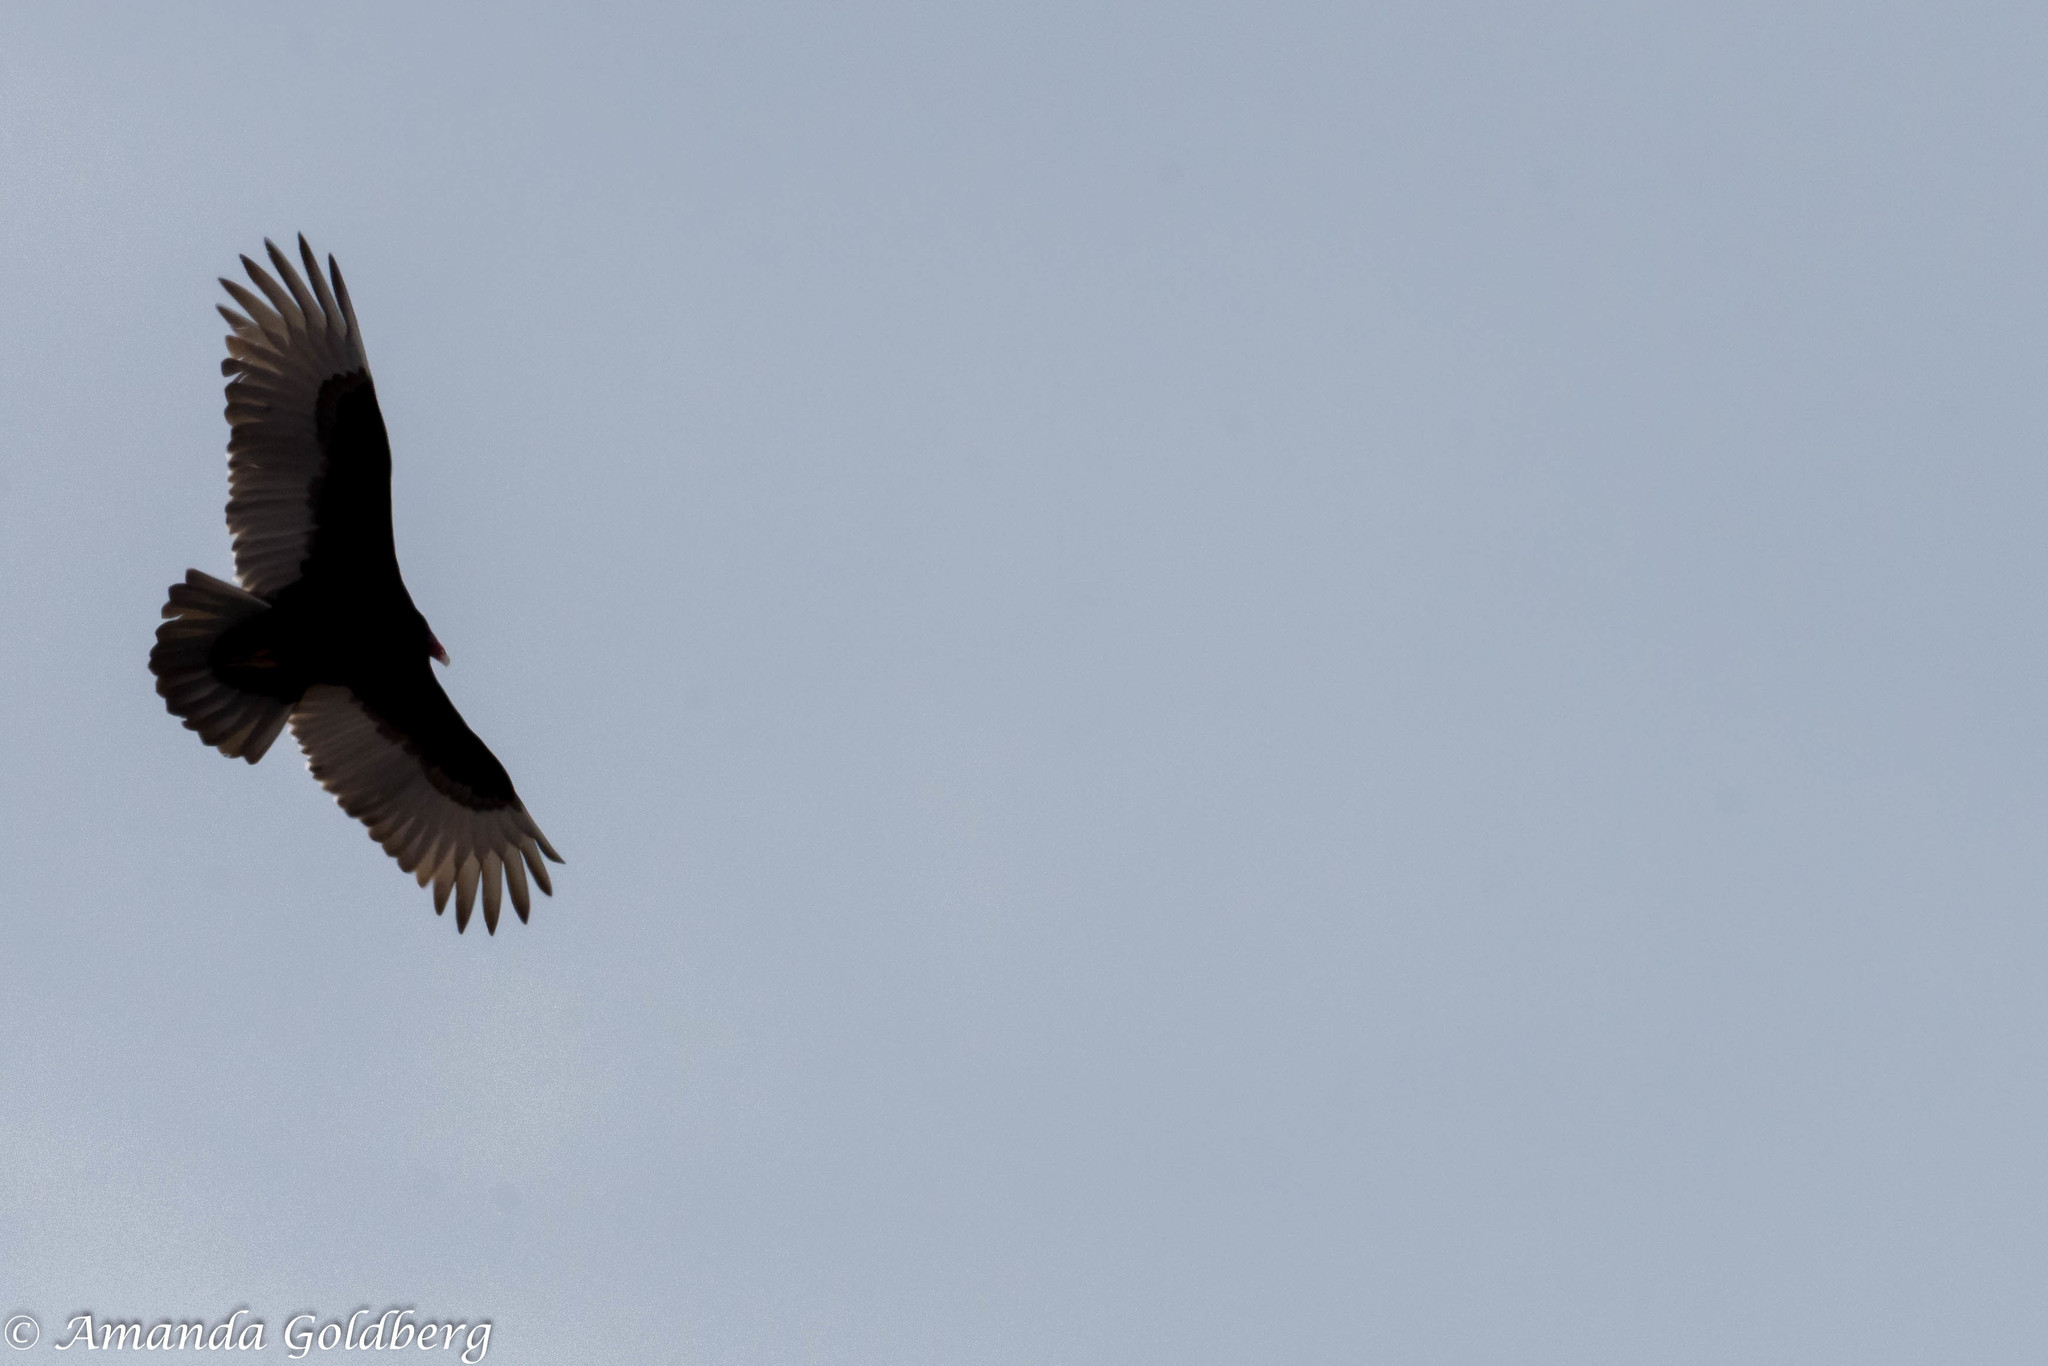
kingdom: Animalia
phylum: Chordata
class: Aves
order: Accipitriformes
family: Cathartidae
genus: Cathartes
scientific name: Cathartes aura
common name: Turkey vulture
